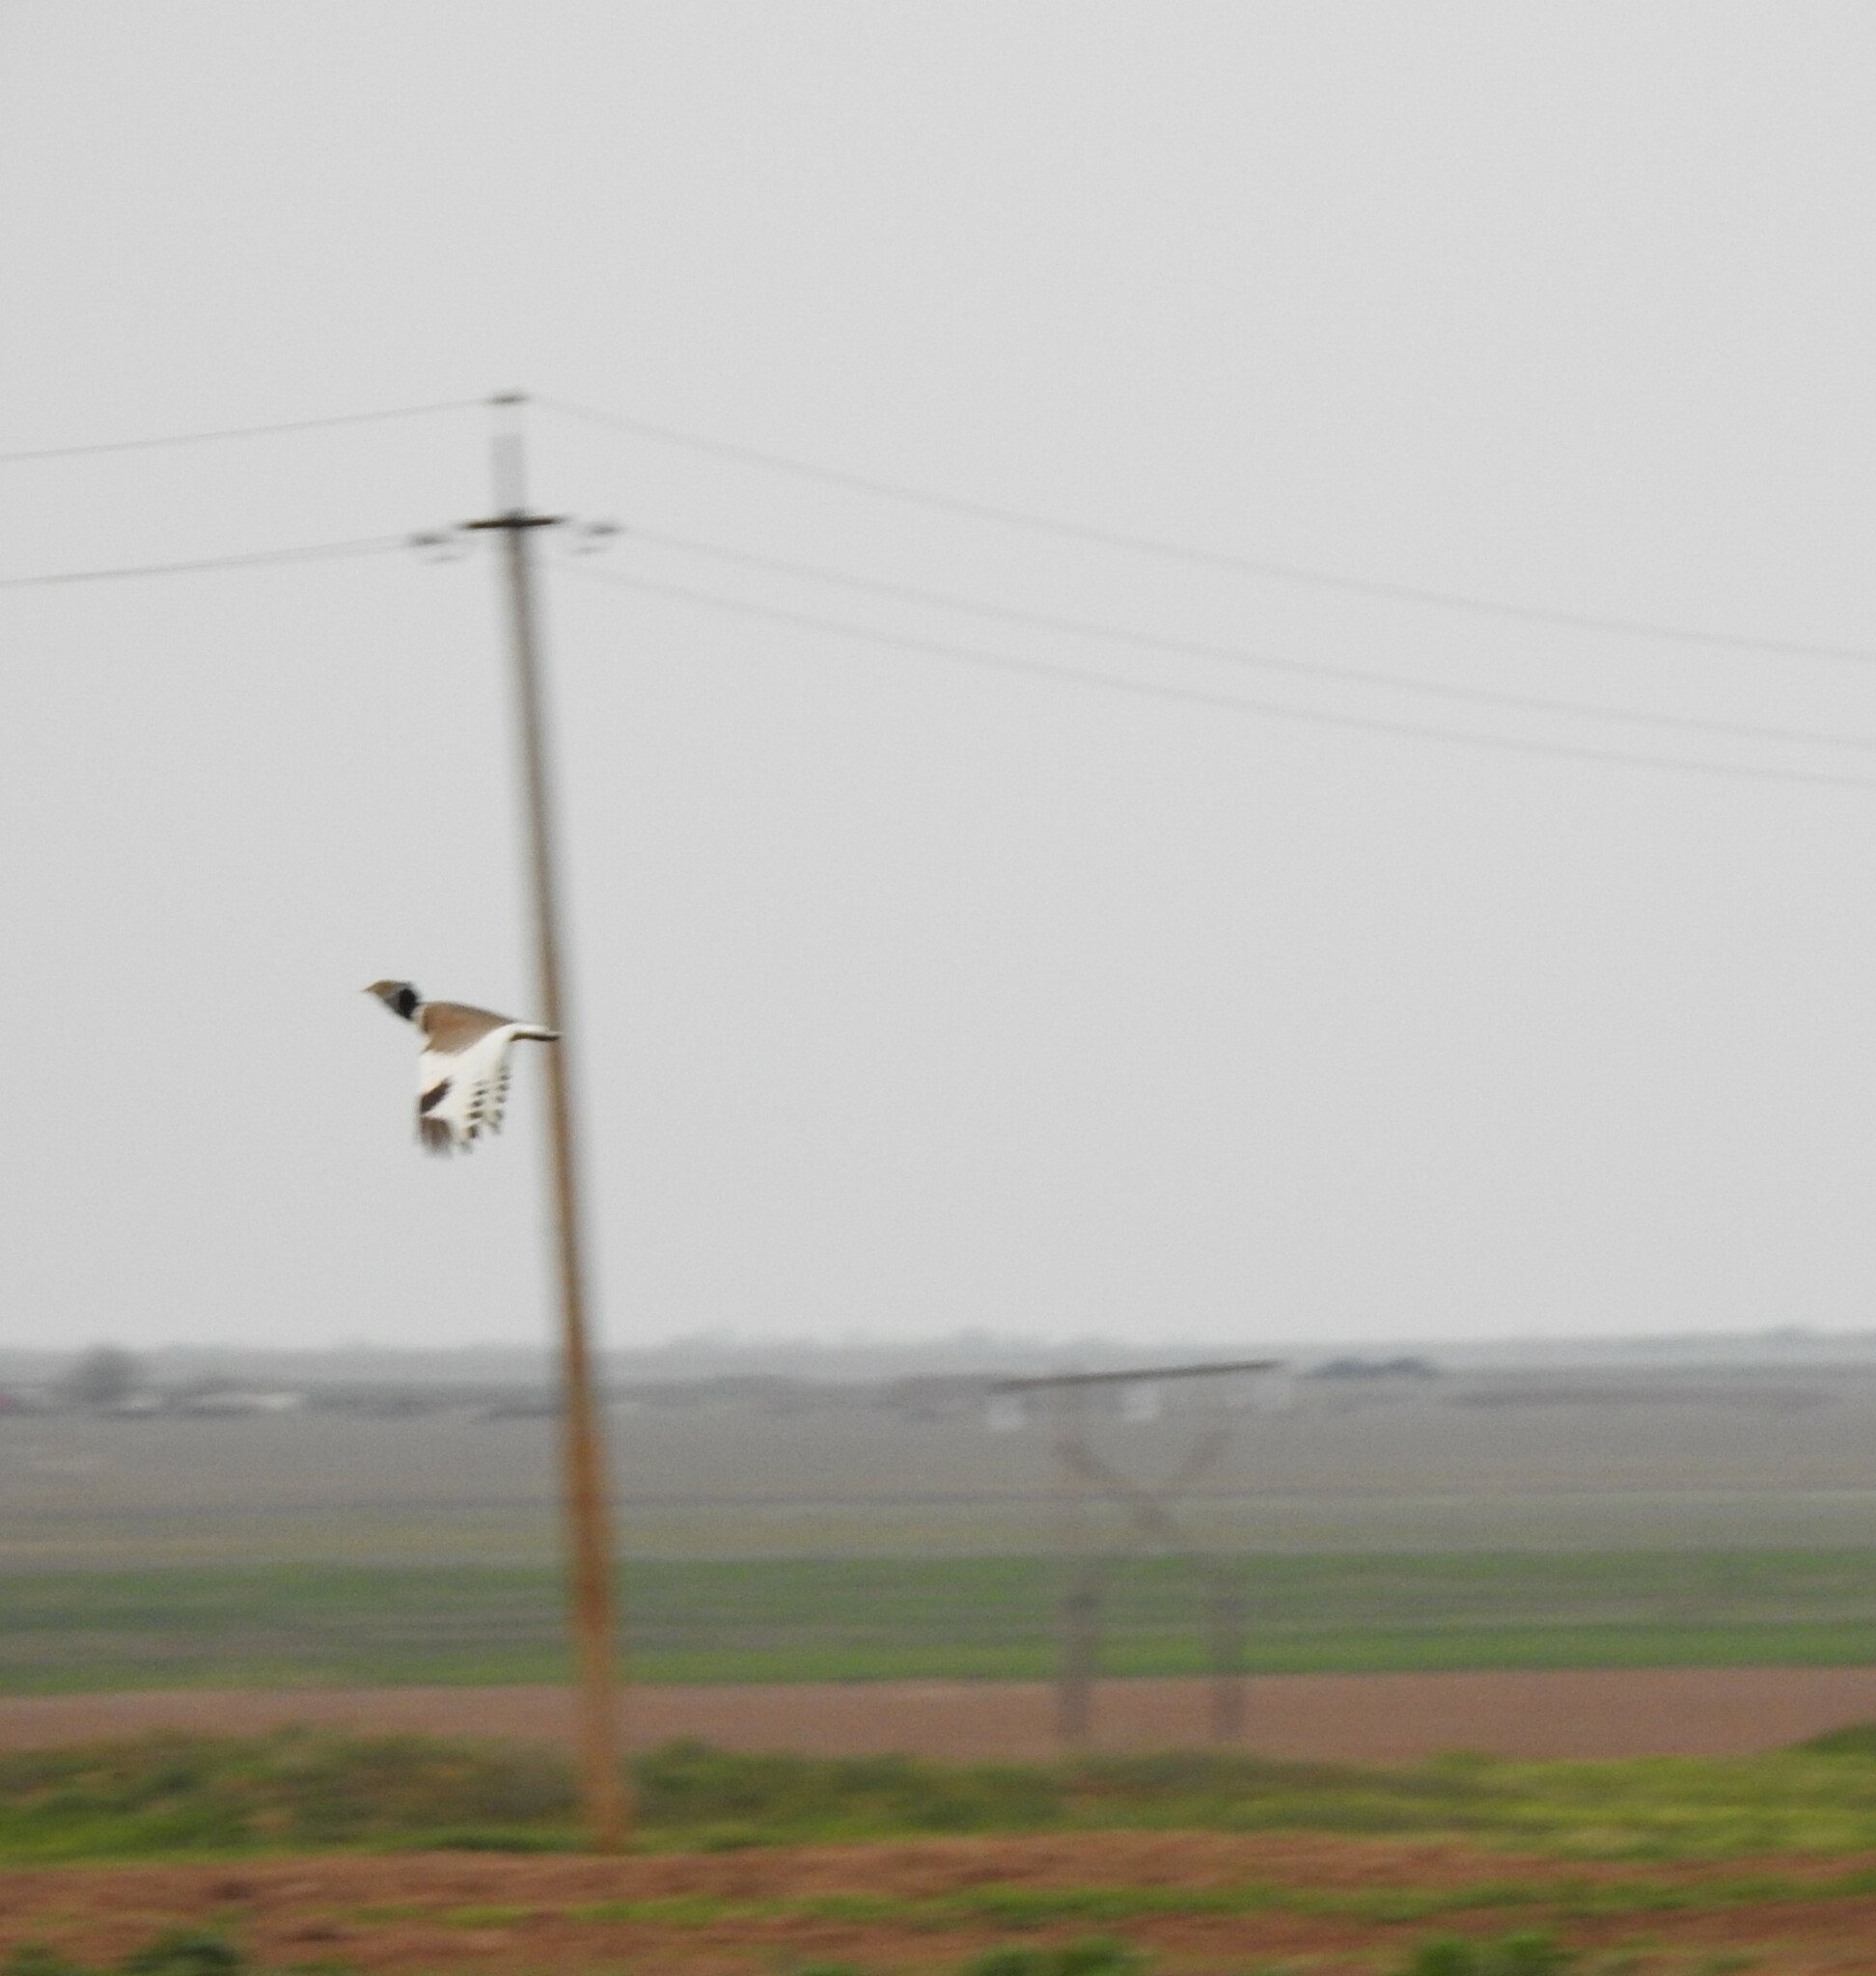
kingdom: Animalia
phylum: Chordata
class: Aves
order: Otidiformes
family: Otididae
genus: Tetrax
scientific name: Tetrax tetrax
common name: Little bustard
